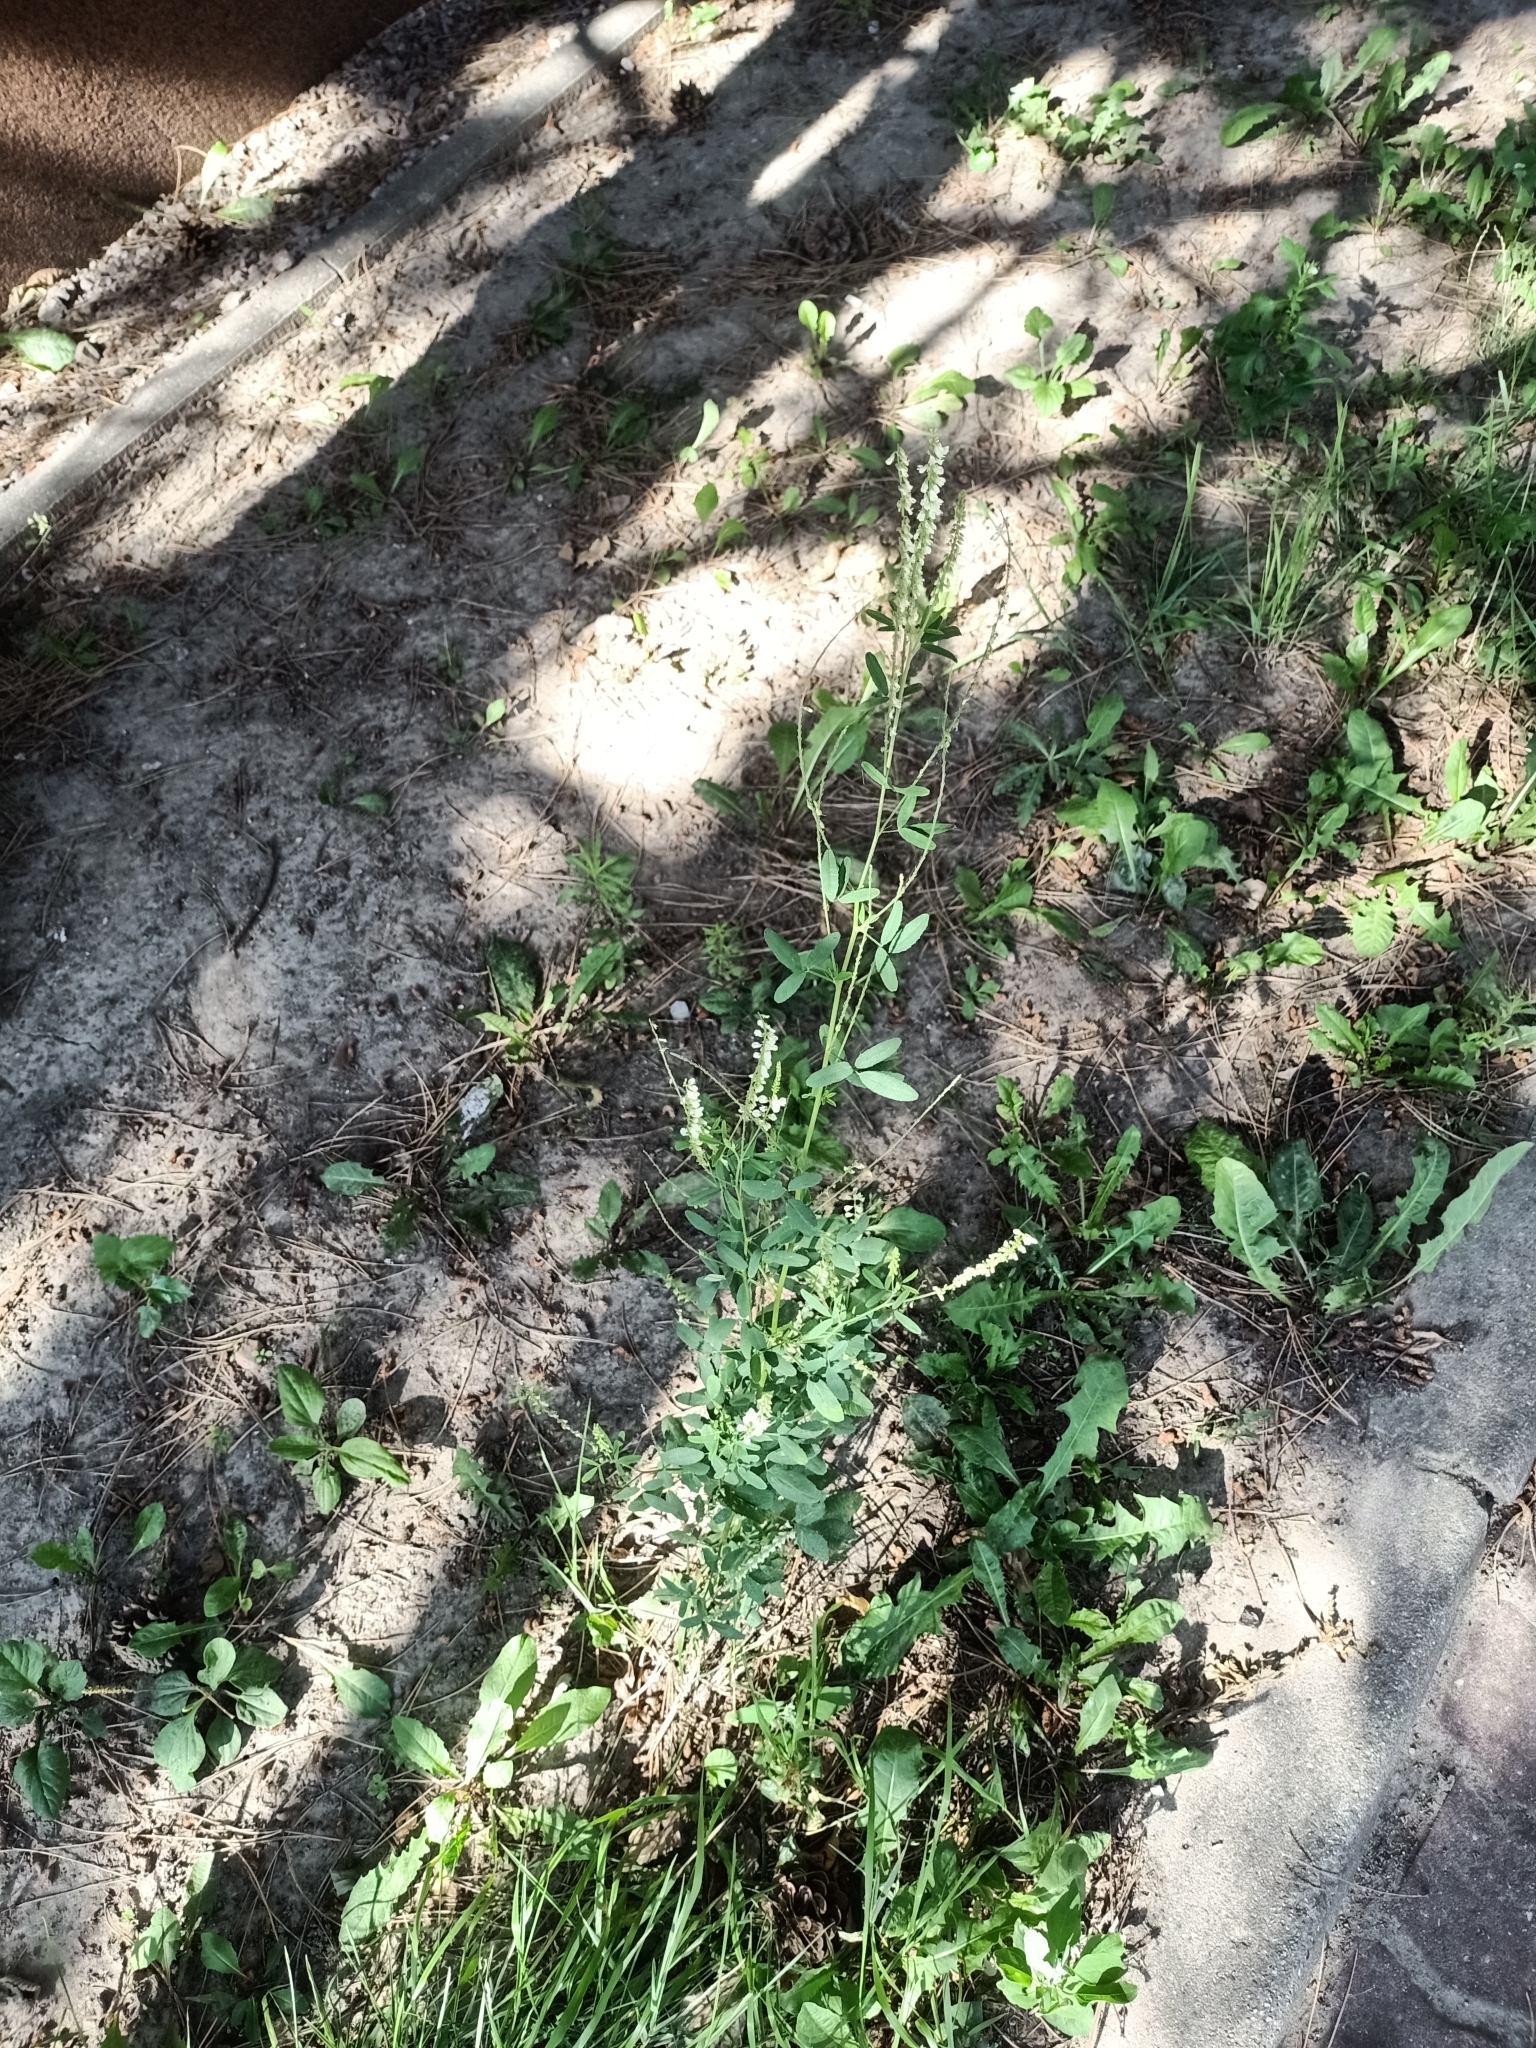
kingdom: Plantae
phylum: Tracheophyta
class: Magnoliopsida
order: Fabales
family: Fabaceae
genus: Melilotus
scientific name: Melilotus albus
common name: White melilot
